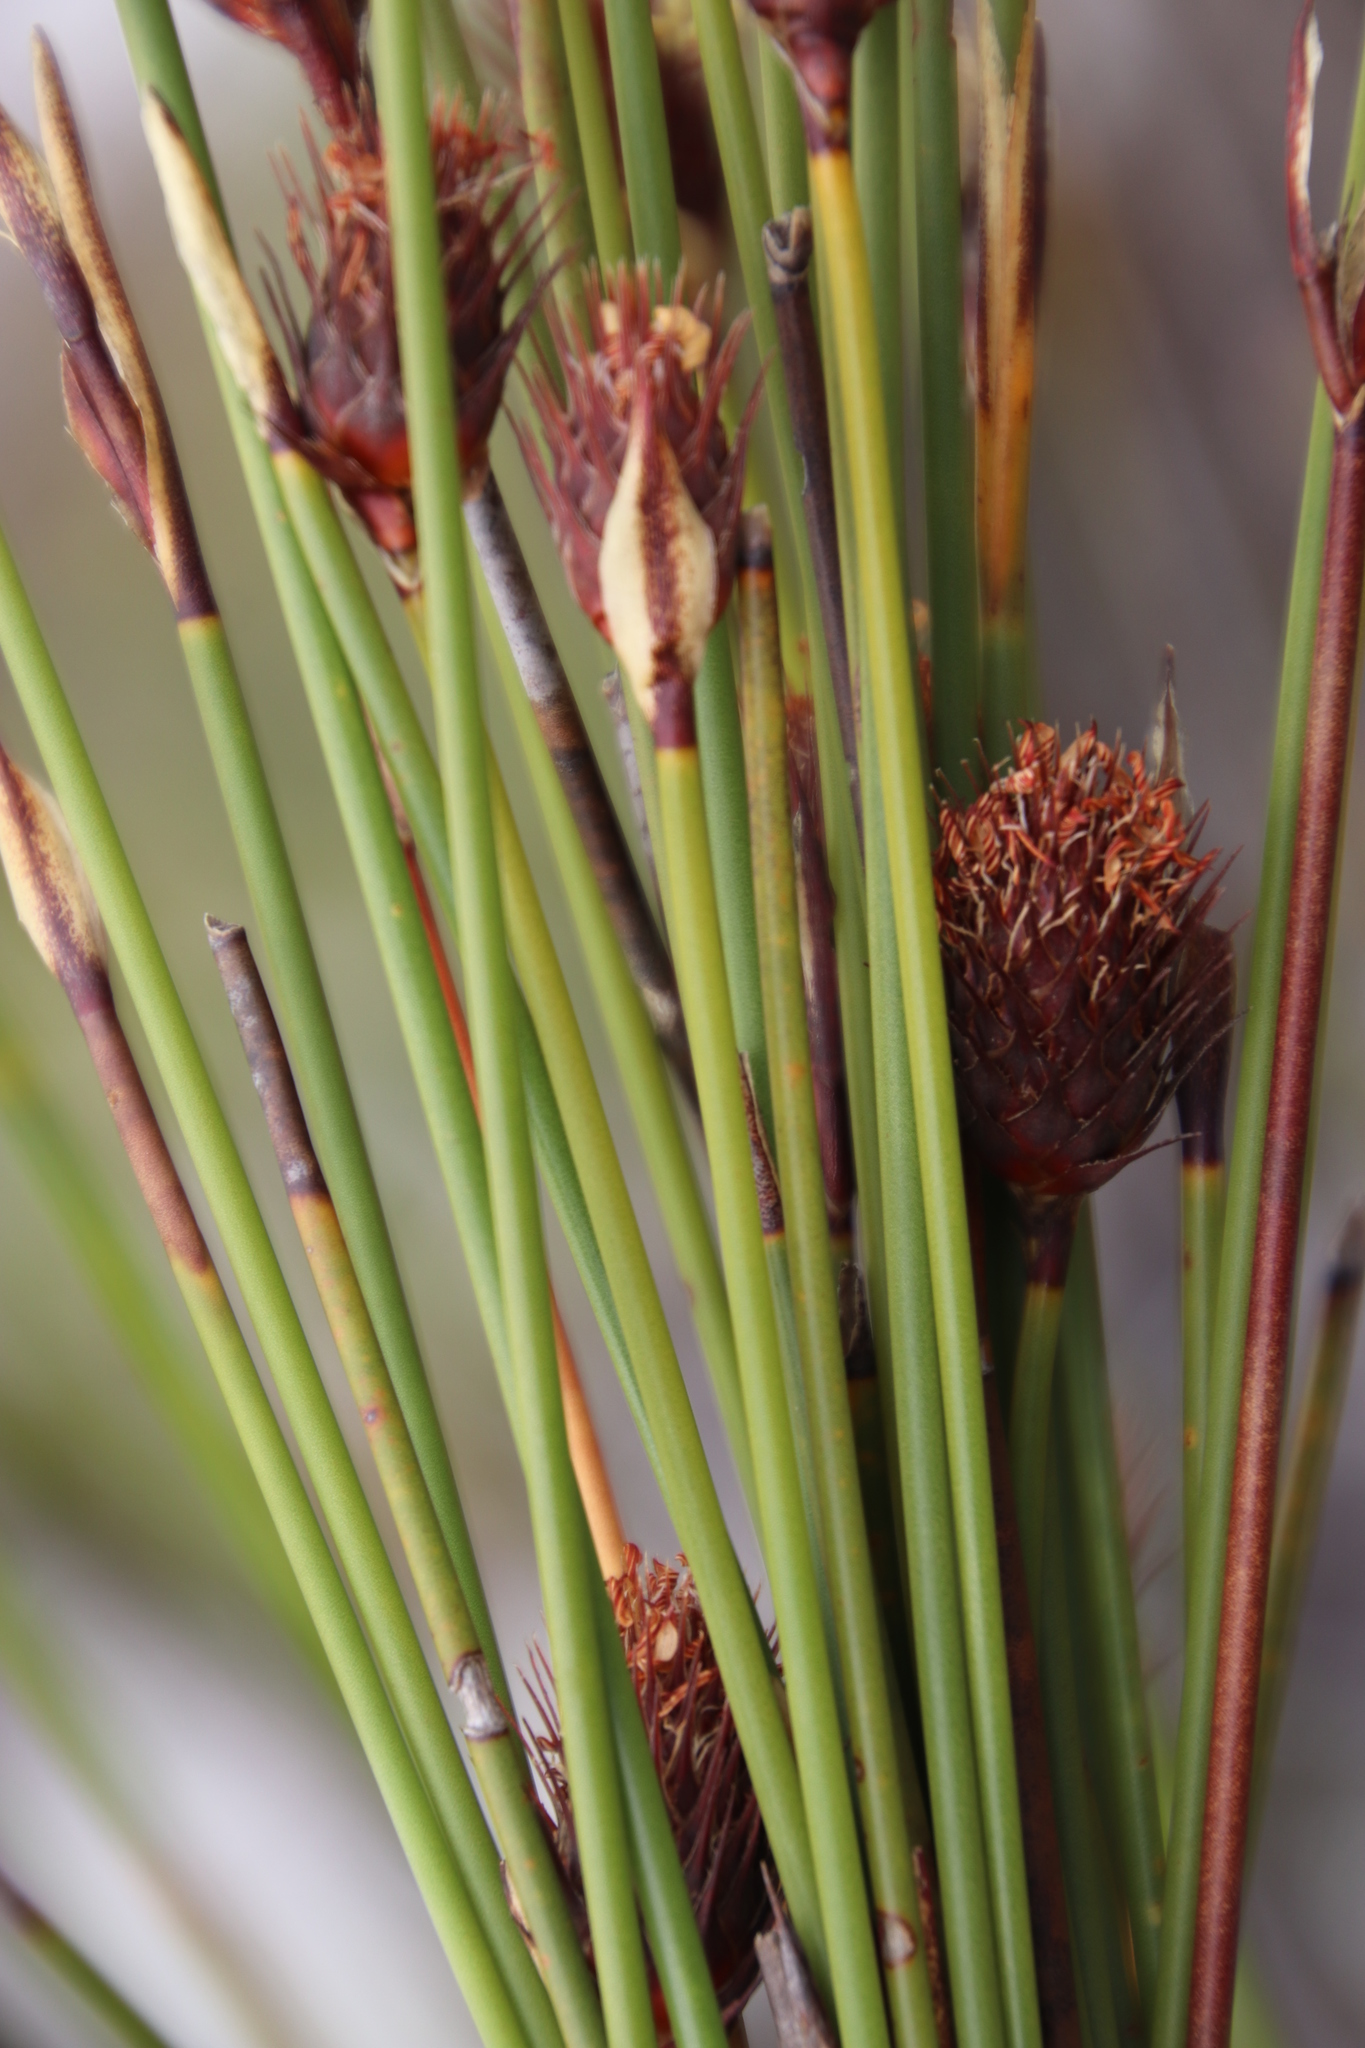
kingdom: Plantae
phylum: Tracheophyta
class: Liliopsida
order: Poales
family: Restionaceae
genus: Hypodiscus
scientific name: Hypodiscus aristatus
